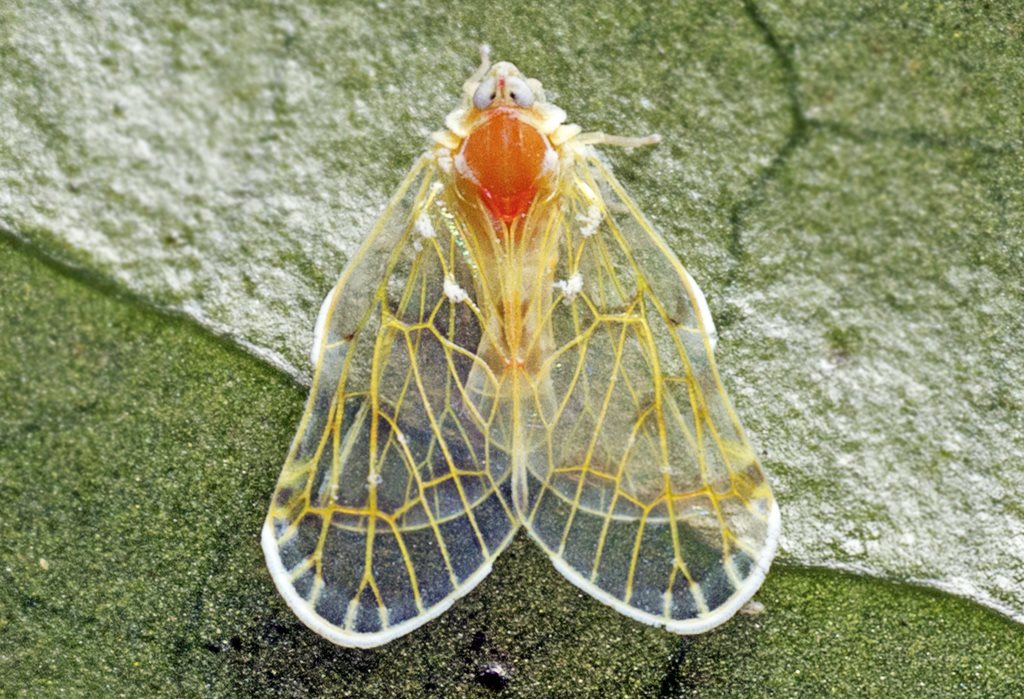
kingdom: Animalia
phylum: Arthropoda
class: Insecta
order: Hemiptera
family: Derbidae
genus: Saccharodite
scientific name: Saccharodite chrysonoe
